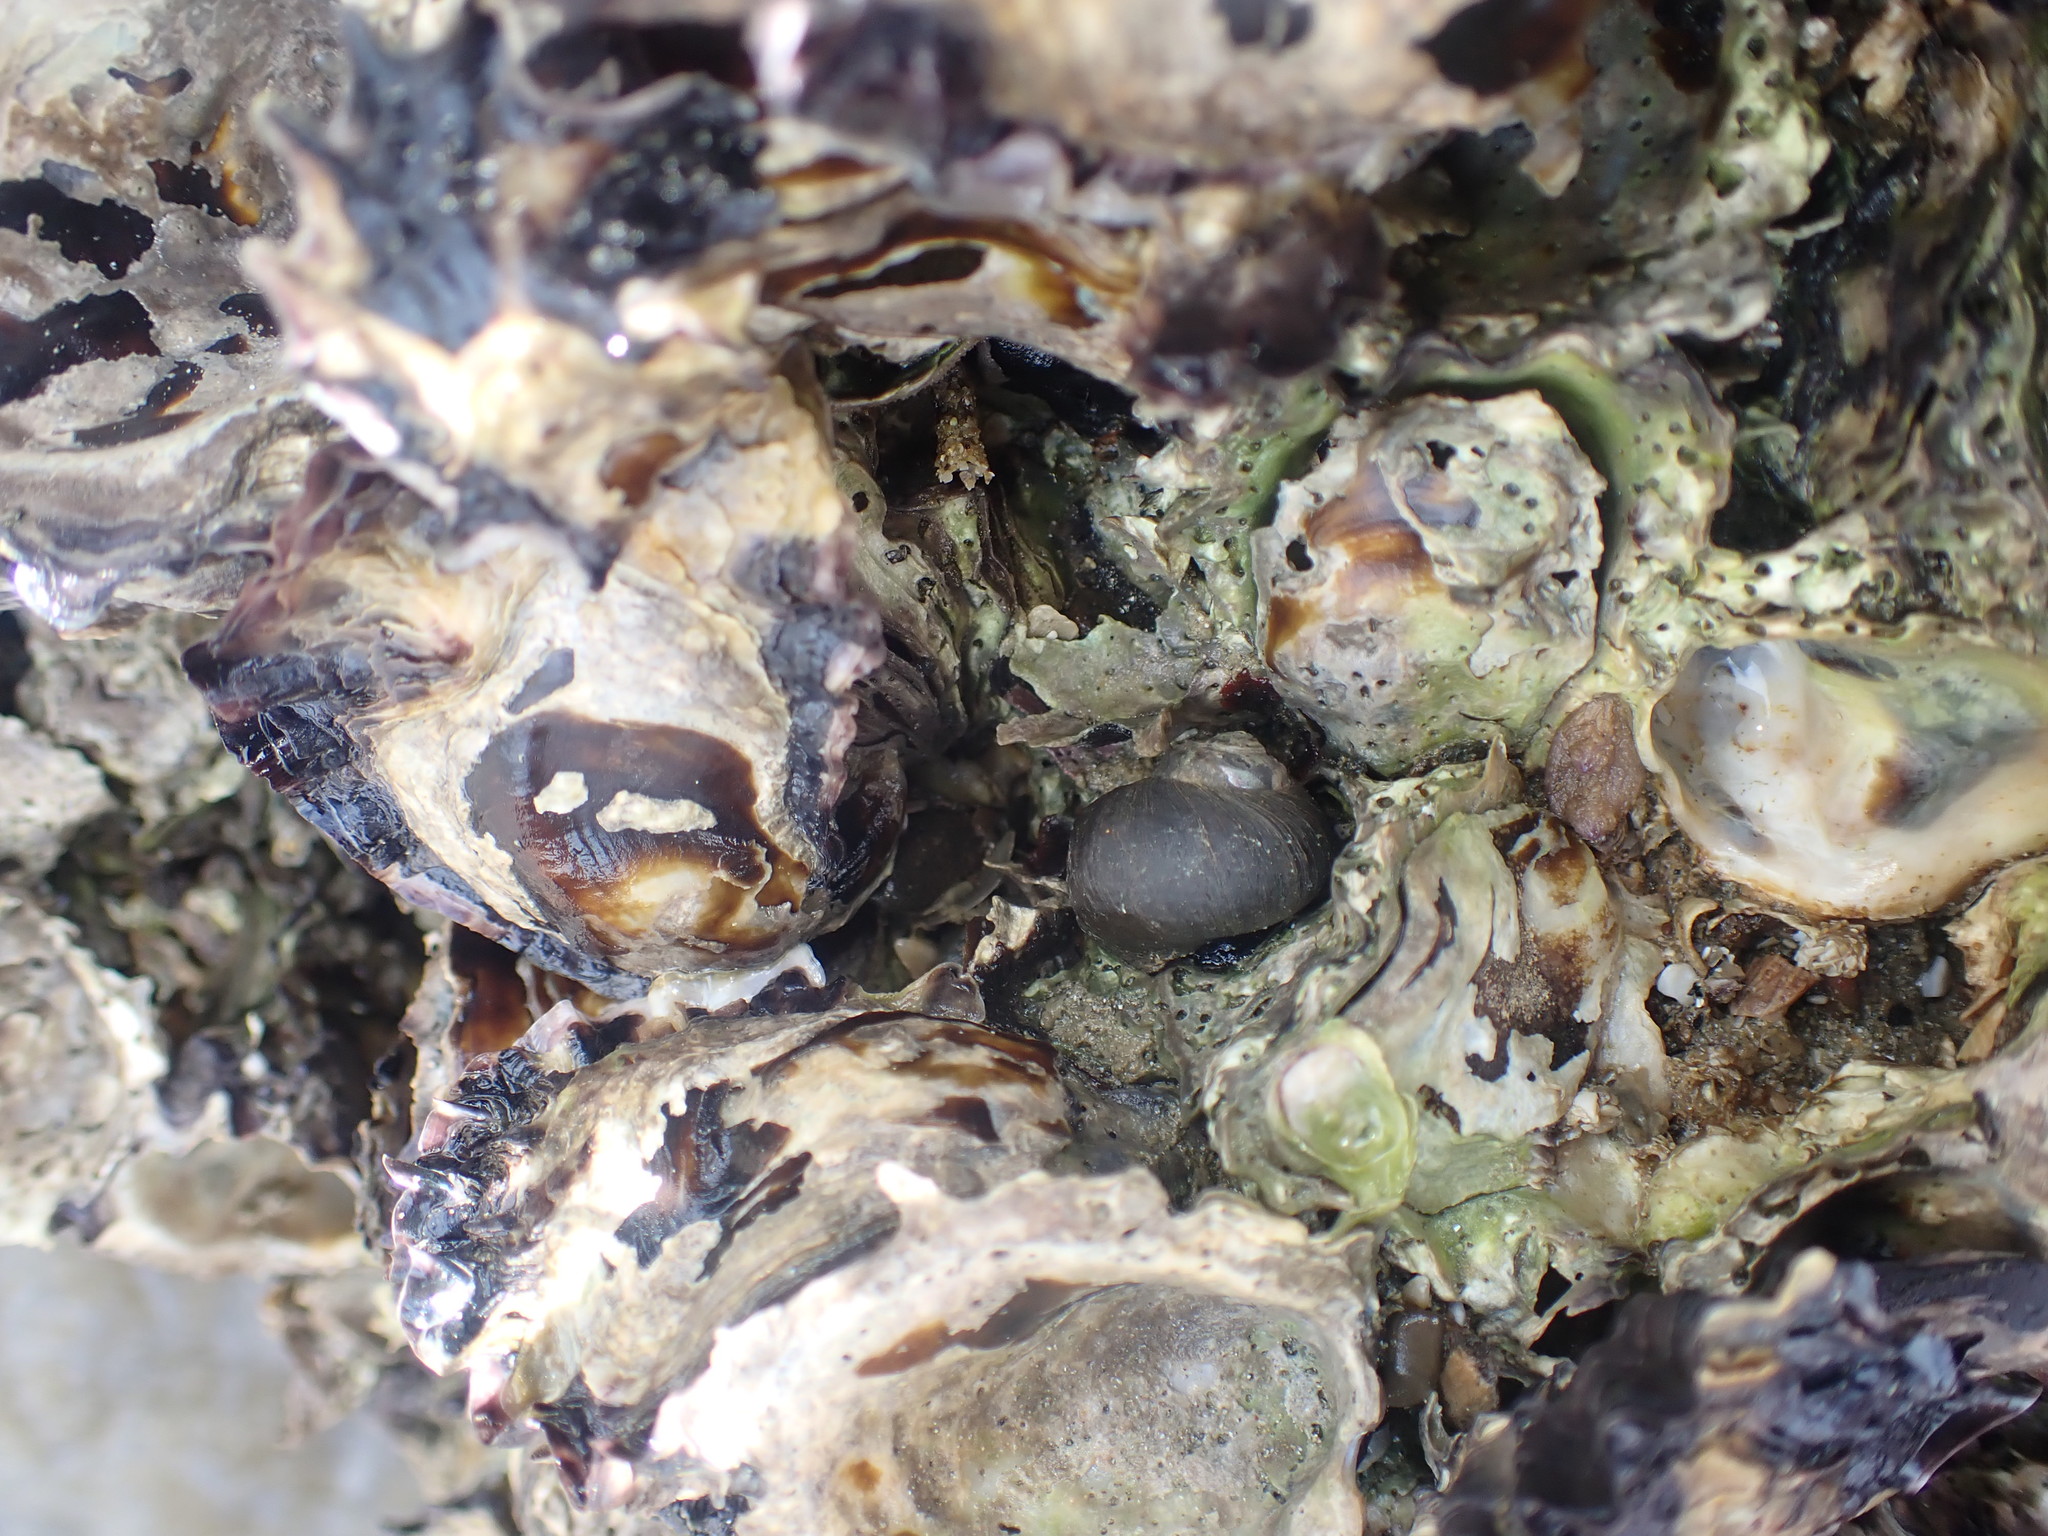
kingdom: Animalia
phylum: Mollusca
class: Gastropoda
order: Trochida
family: Turbinidae
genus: Lunella
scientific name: Lunella smaragda
